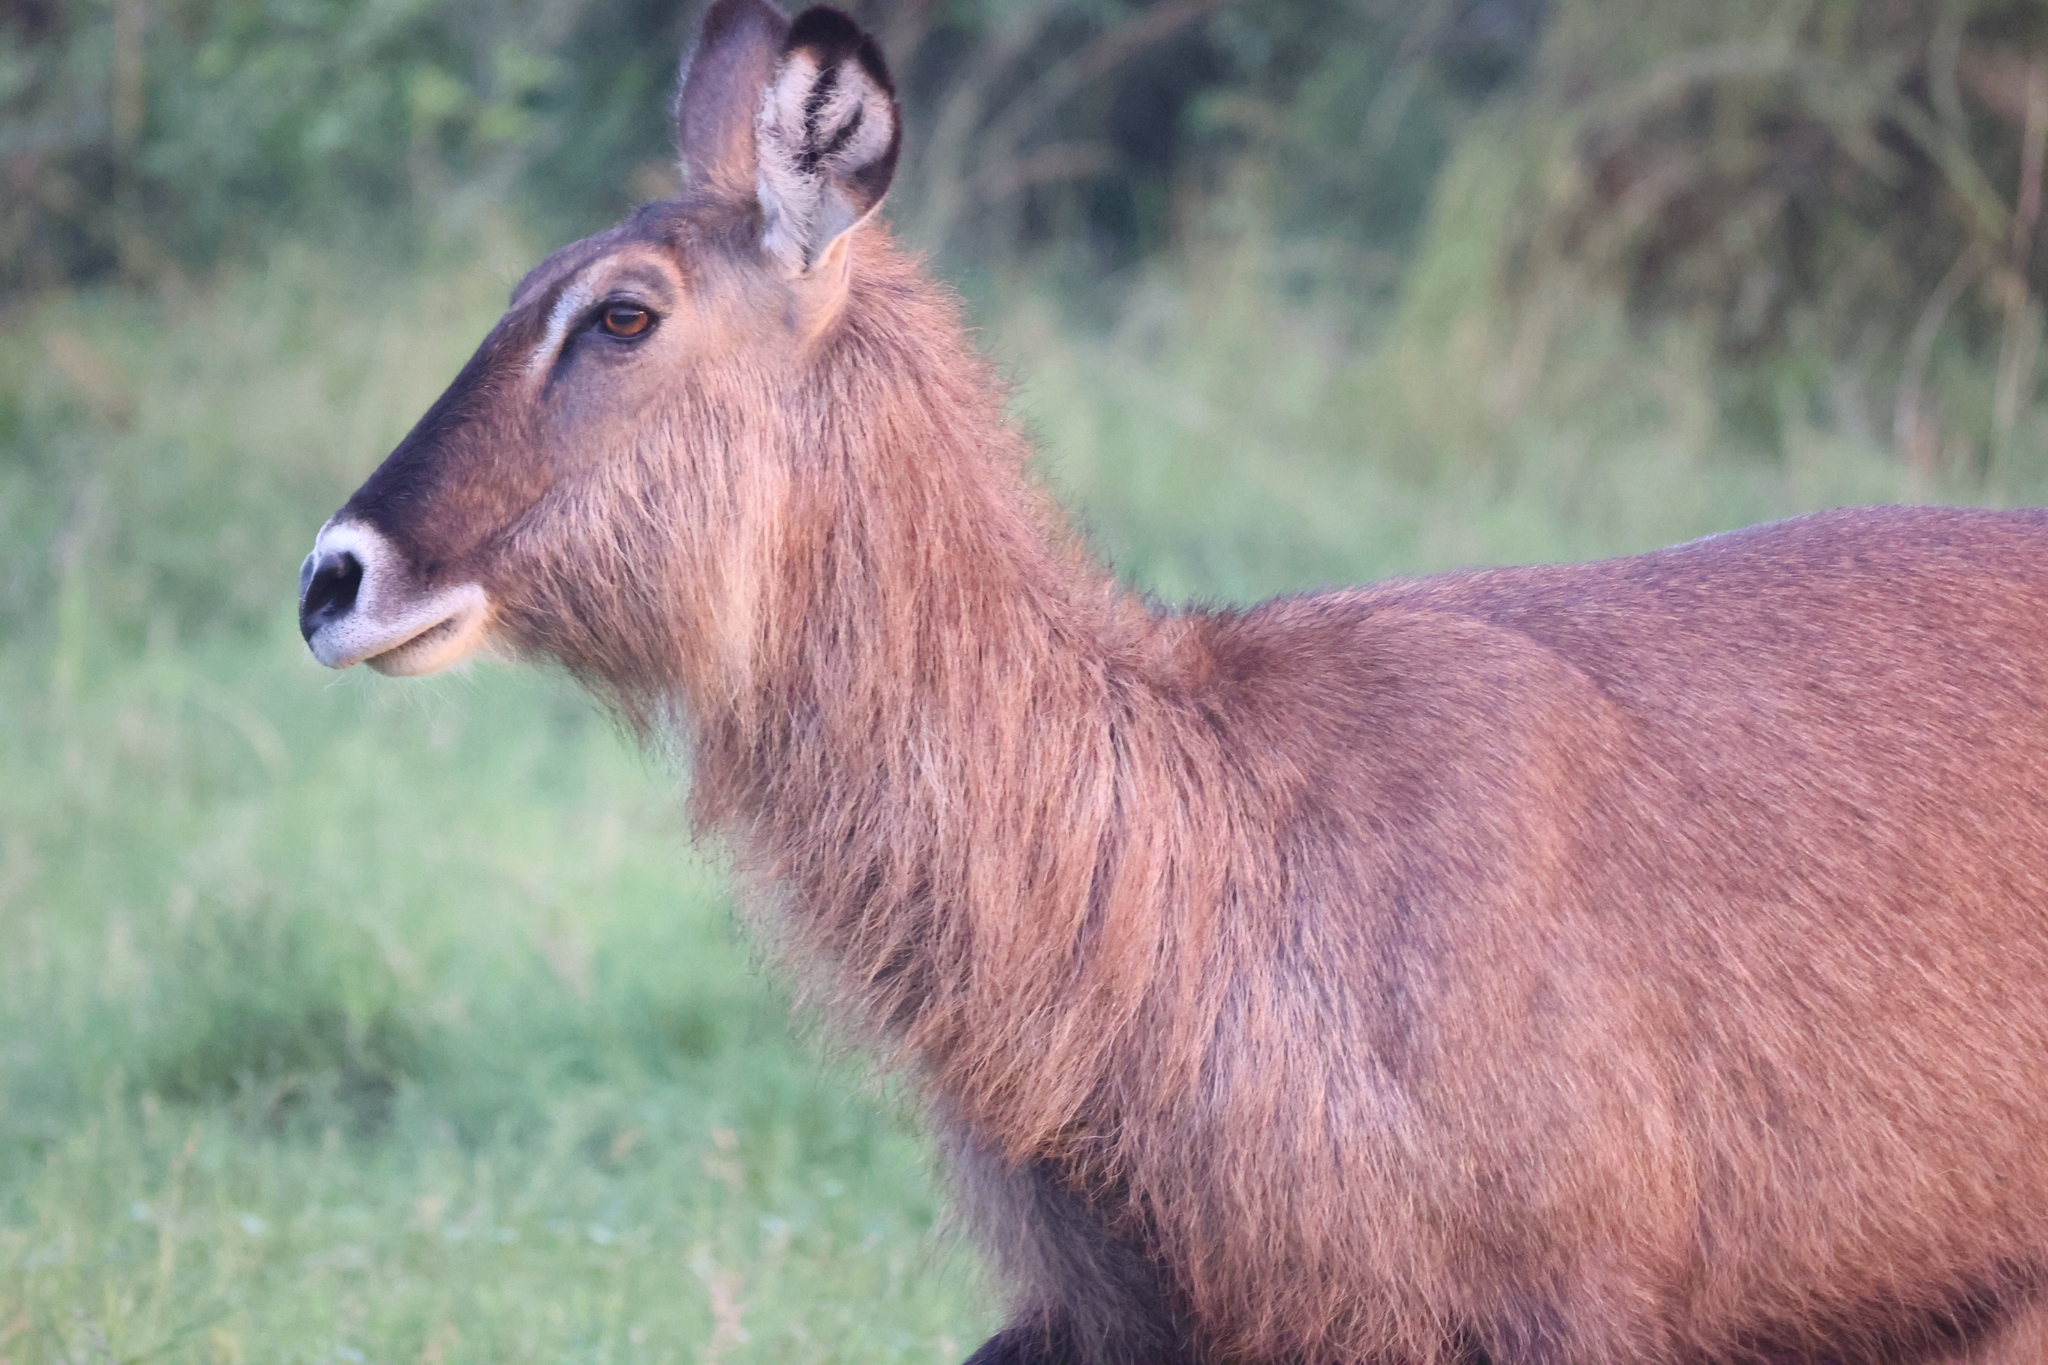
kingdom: Animalia
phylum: Chordata
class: Mammalia
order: Artiodactyla
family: Bovidae
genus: Kobus
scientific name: Kobus ellipsiprymnus
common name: Waterbuck
